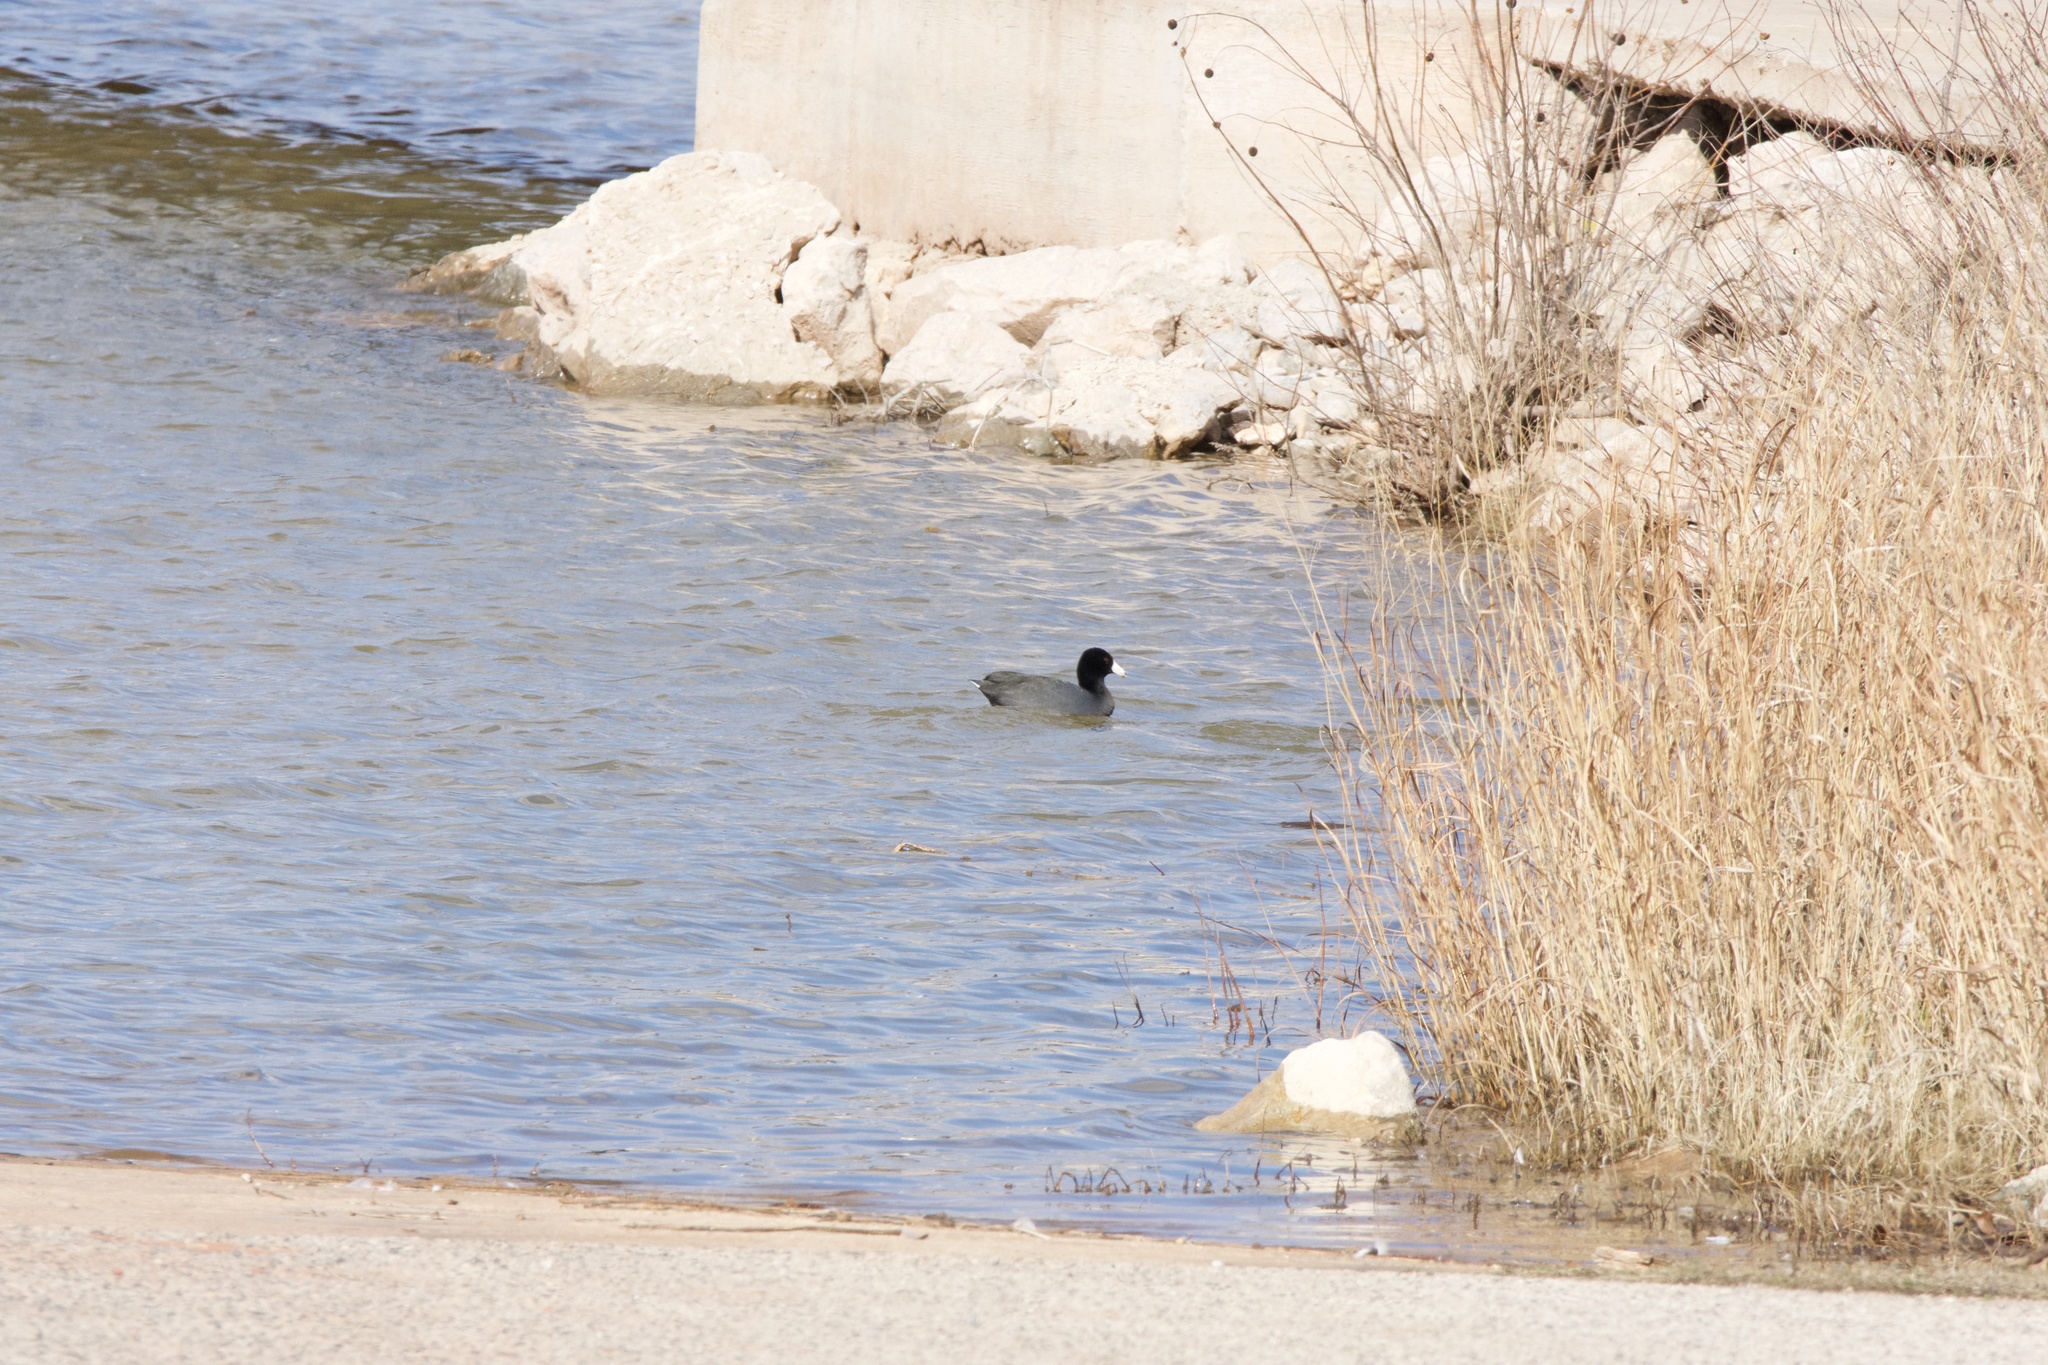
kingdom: Animalia
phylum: Chordata
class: Aves
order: Gruiformes
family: Rallidae
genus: Fulica
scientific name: Fulica americana
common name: American coot
